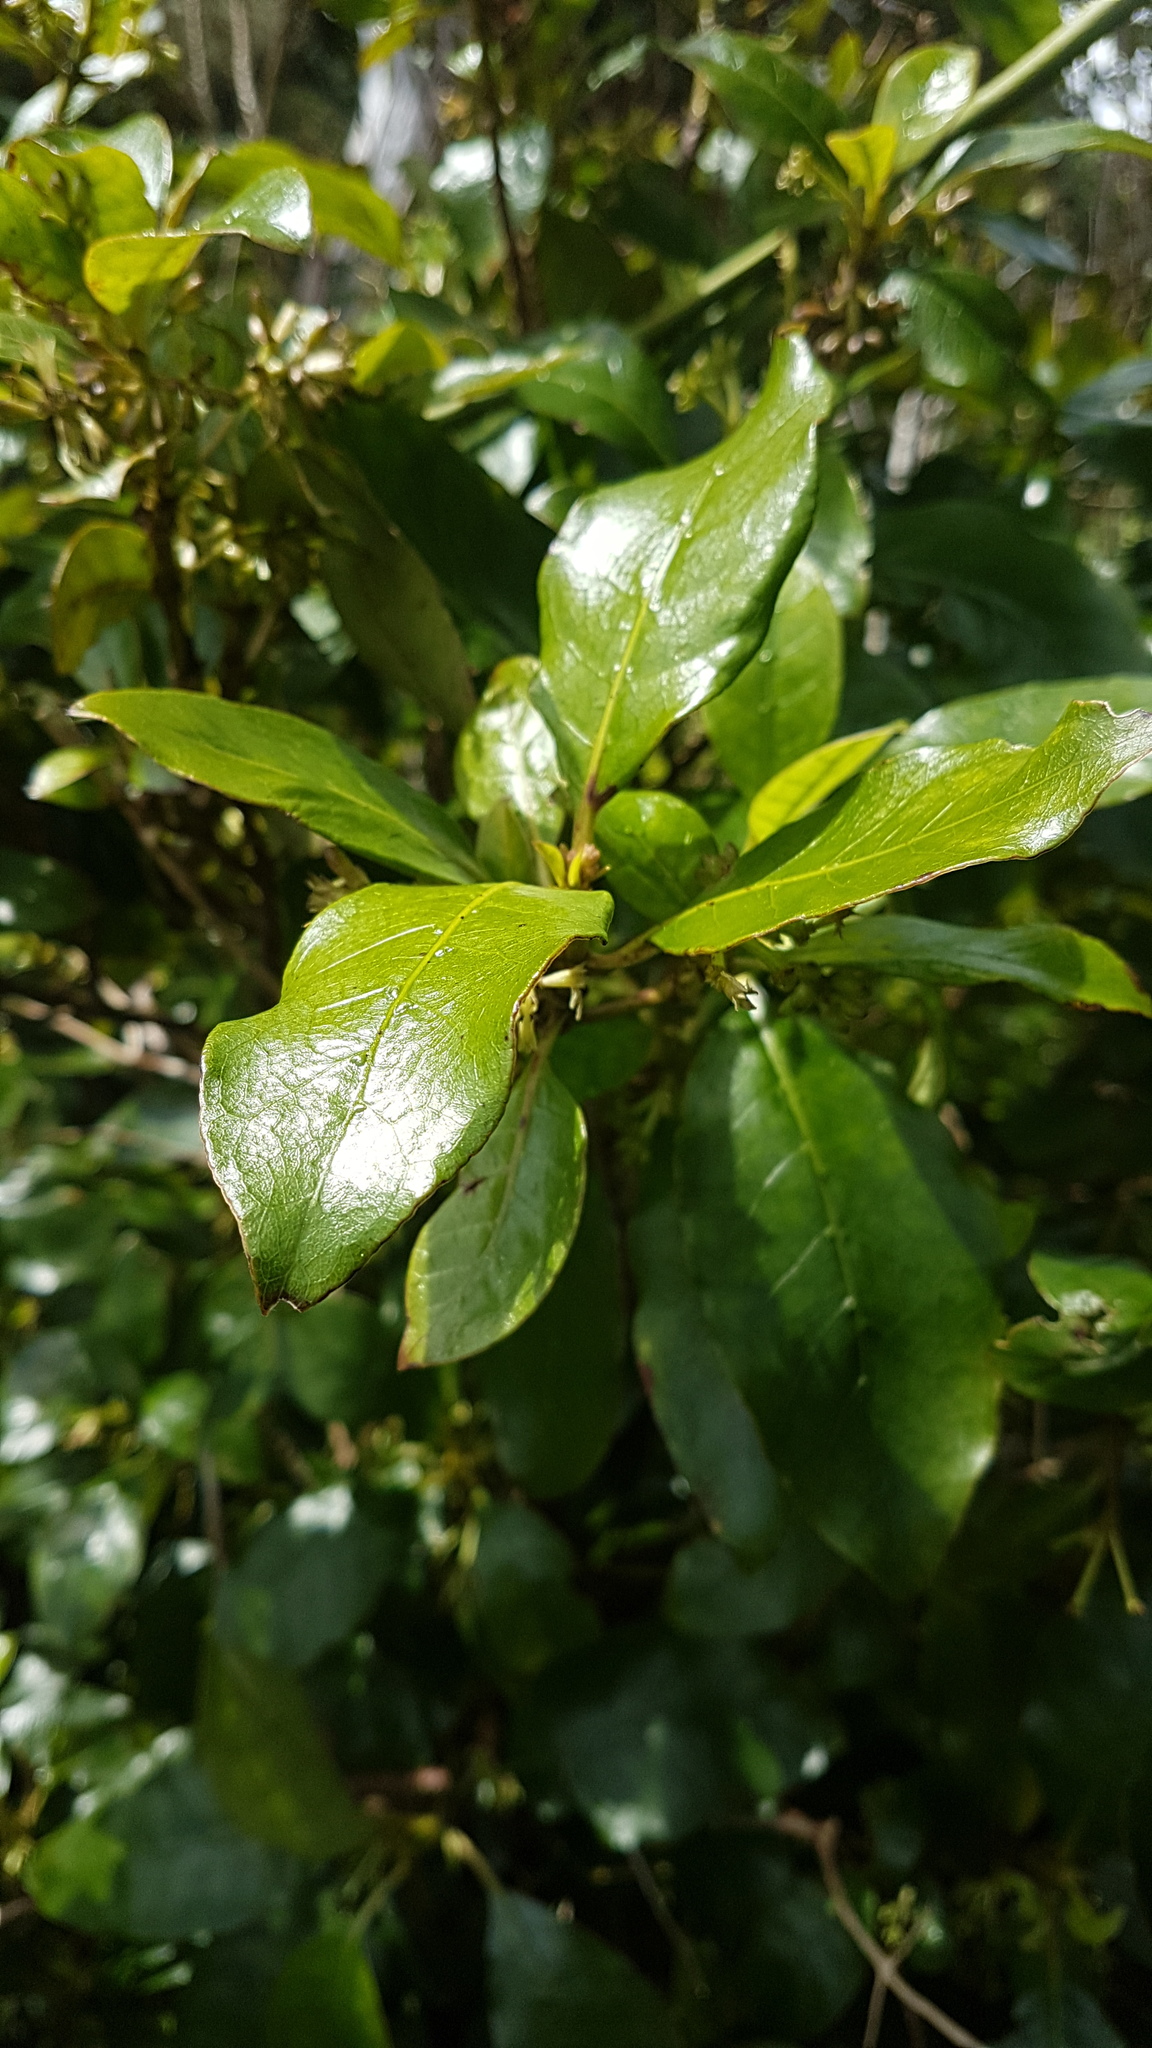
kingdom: Plantae
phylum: Tracheophyta
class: Magnoliopsida
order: Gentianales
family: Rubiaceae
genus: Coprosma
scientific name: Coprosma autumnalis
